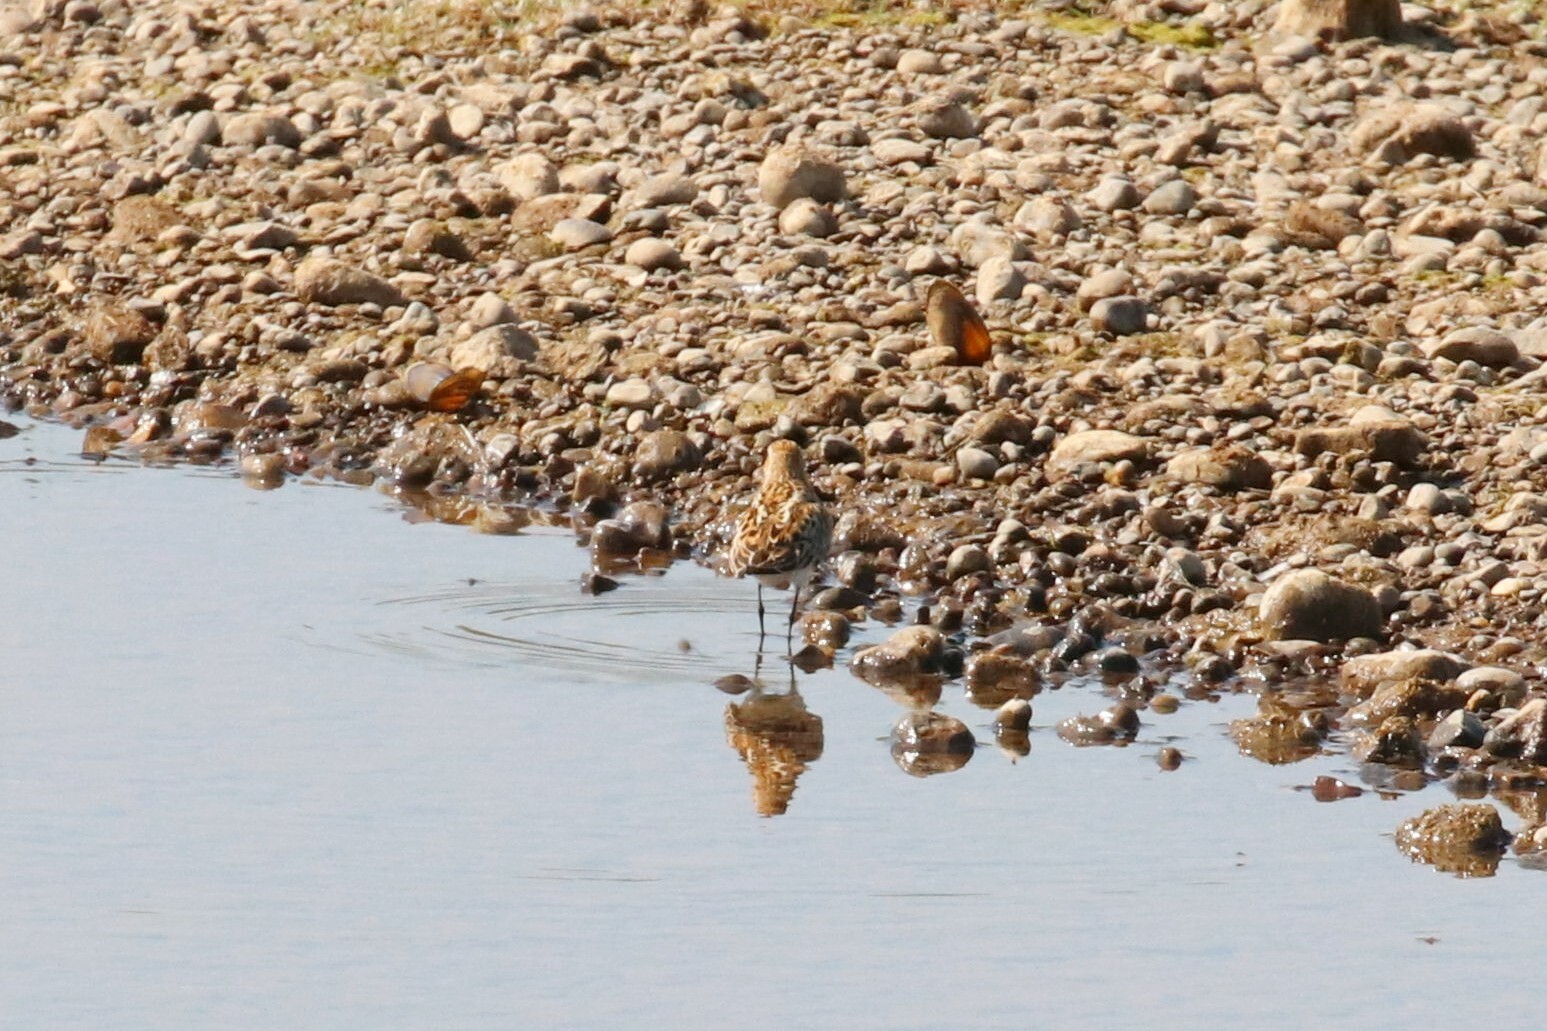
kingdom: Animalia
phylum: Chordata
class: Aves
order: Charadriiformes
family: Scolopacidae
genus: Calidris
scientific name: Calidris minuta
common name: Little stint
